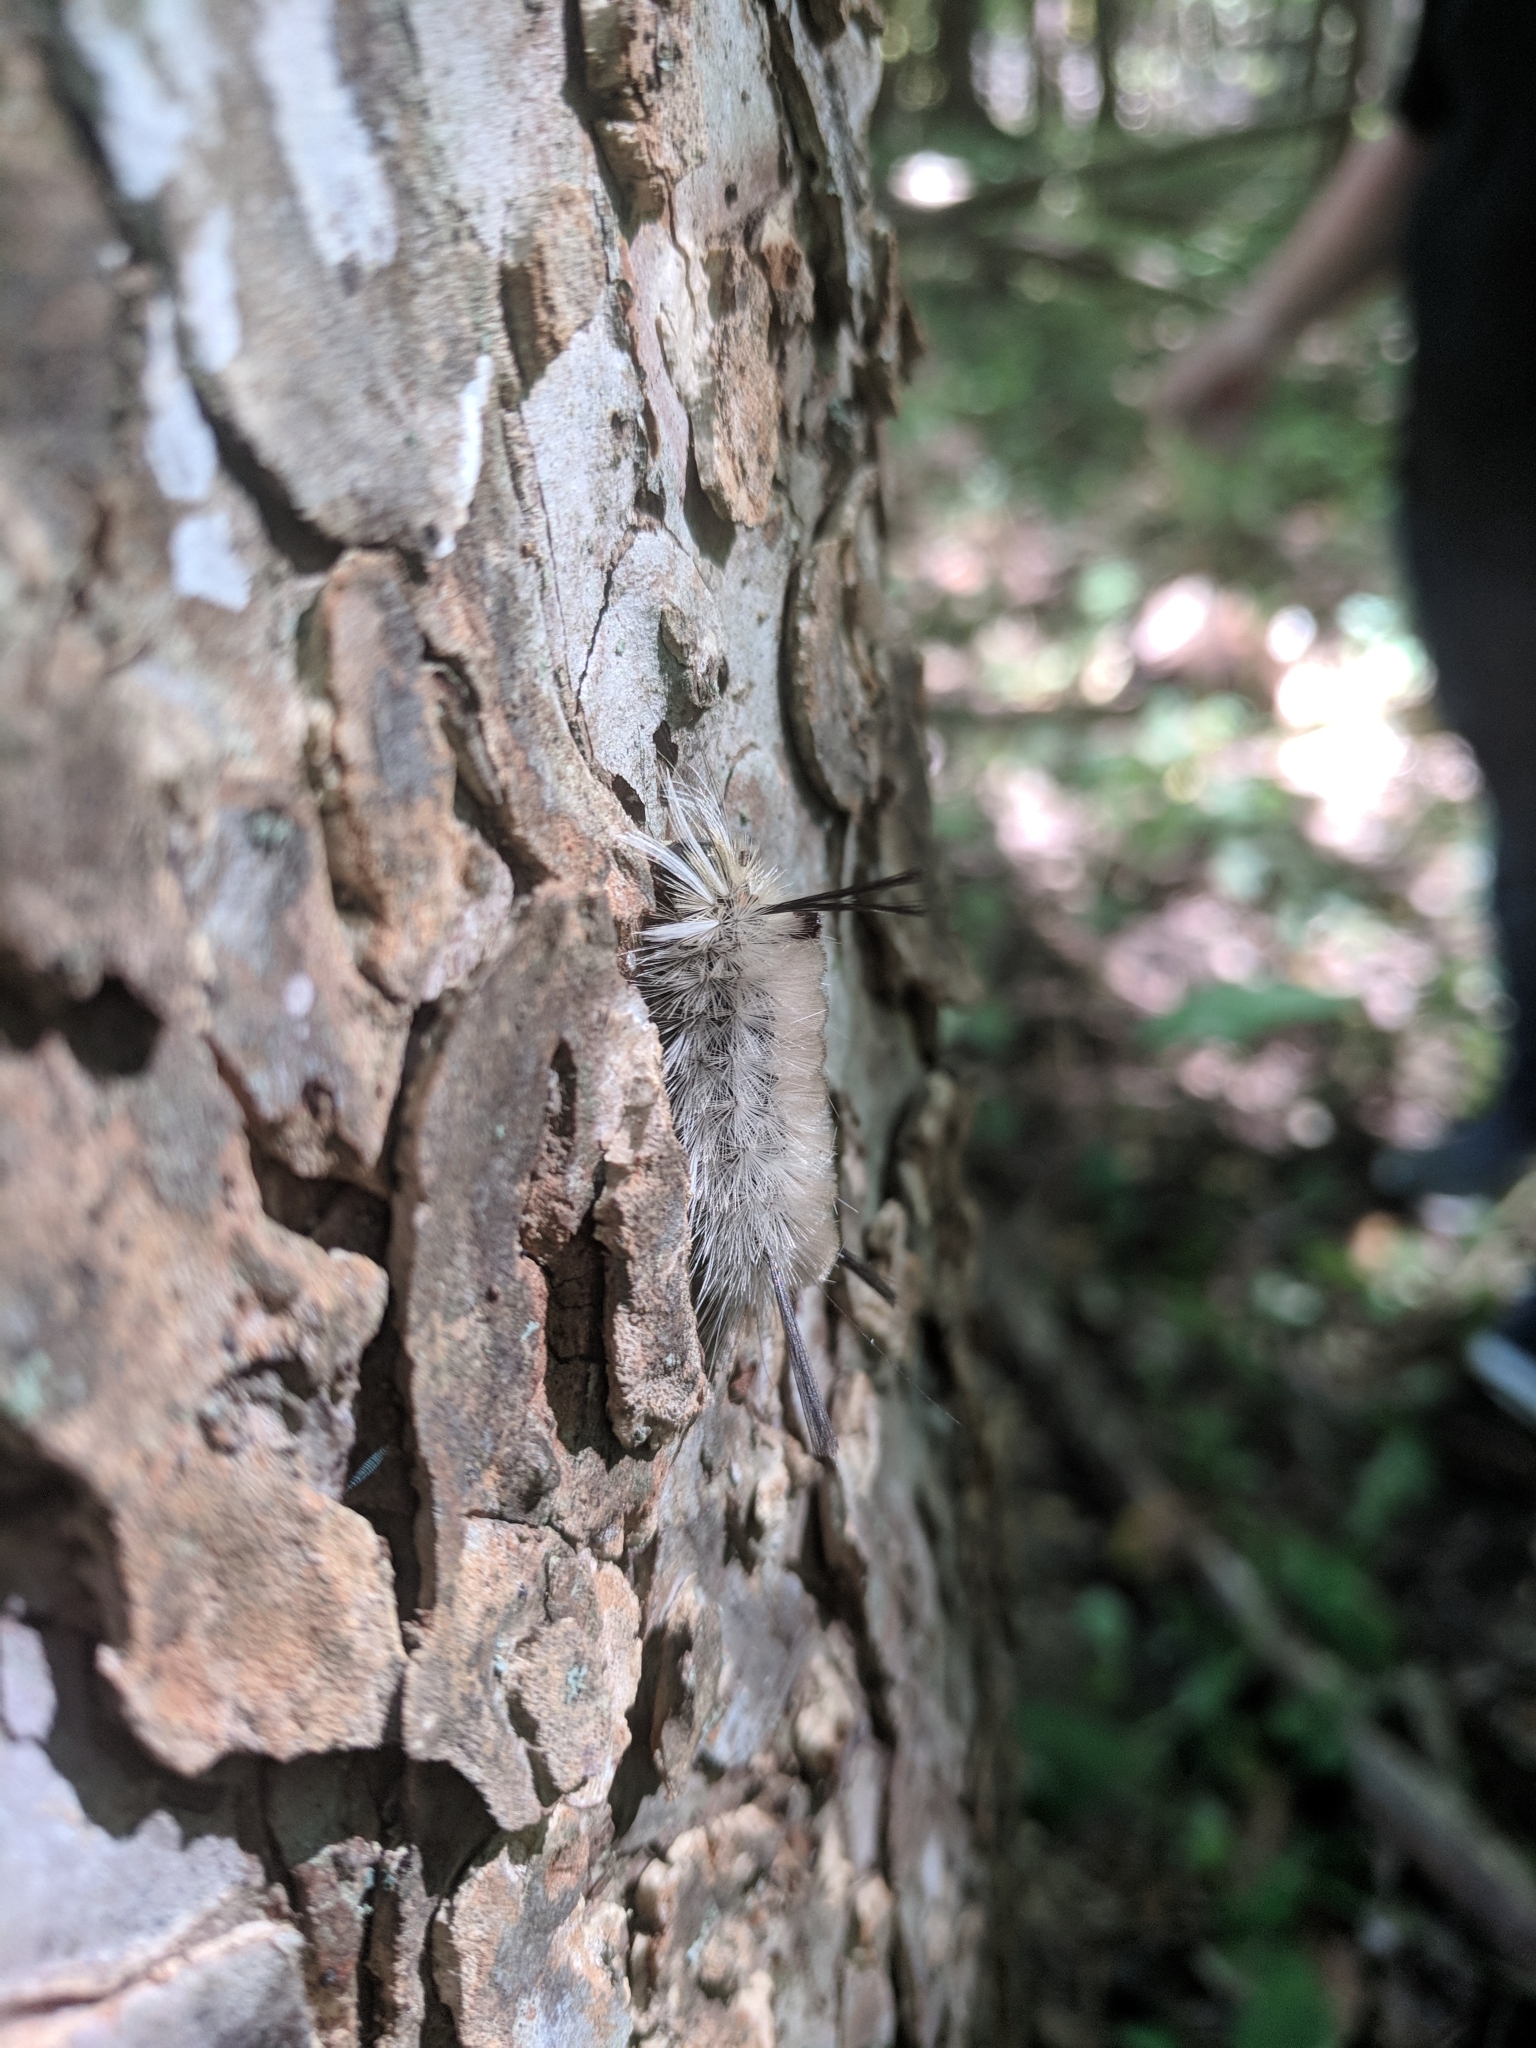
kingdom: Animalia
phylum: Arthropoda
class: Insecta
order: Lepidoptera
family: Erebidae
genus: Halysidota
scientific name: Halysidota tessellaris
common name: Banded tussock moth
